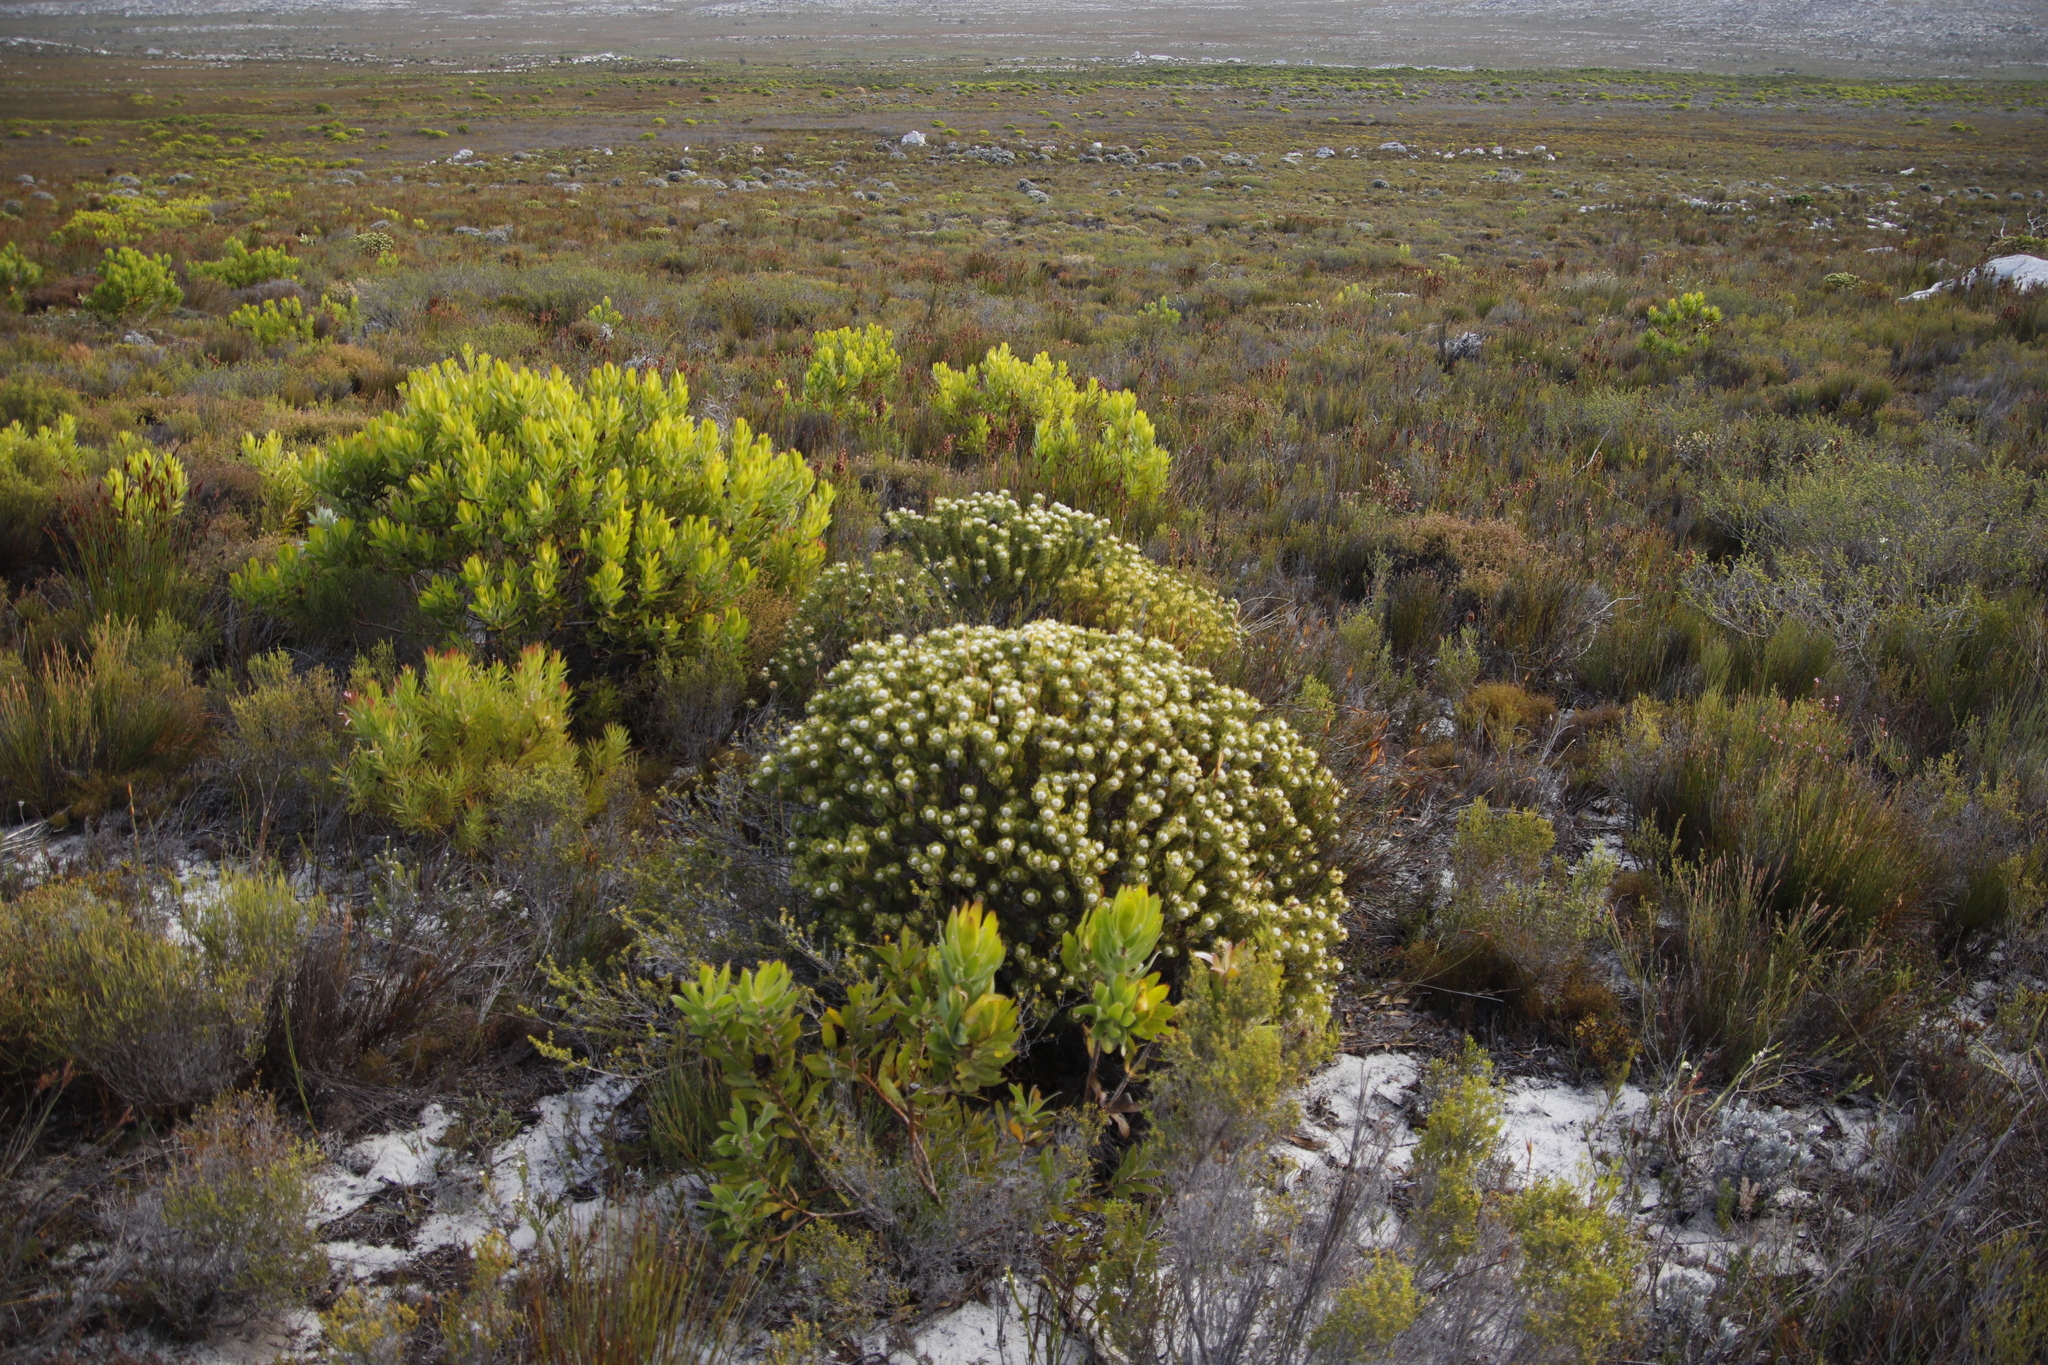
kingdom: Plantae
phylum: Tracheophyta
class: Magnoliopsida
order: Proteales
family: Proteaceae
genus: Serruria
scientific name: Serruria villosa
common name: Golden spiderhead
